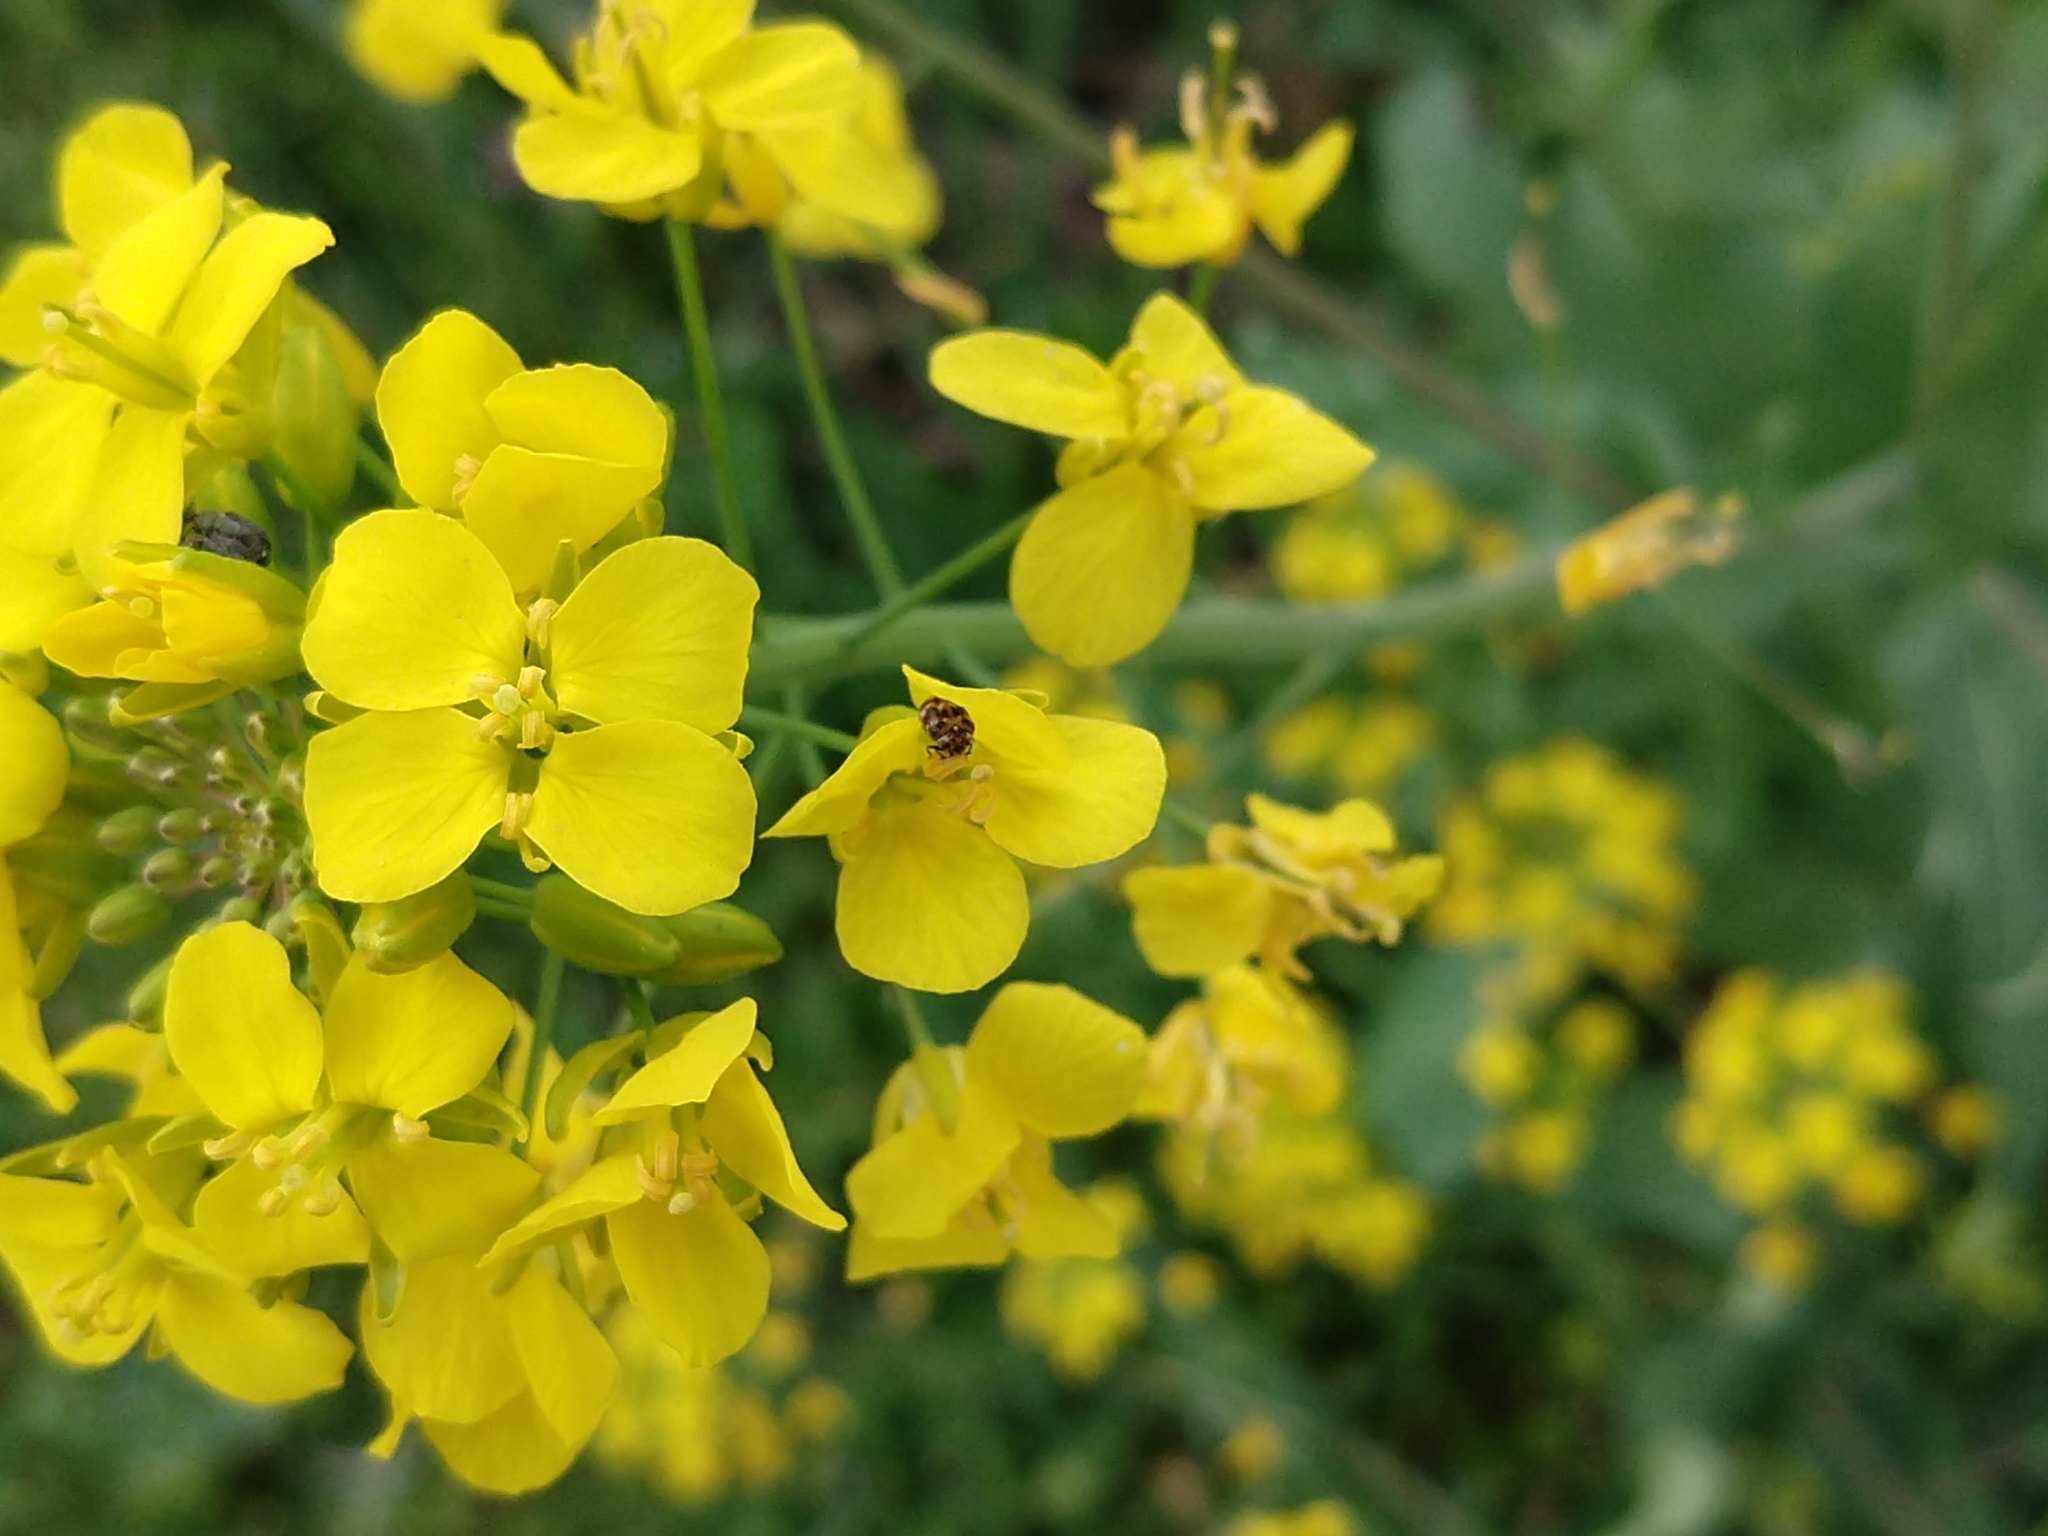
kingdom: Animalia
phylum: Arthropoda
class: Insecta
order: Coleoptera
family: Dermestidae
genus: Anthrenus
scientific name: Anthrenus verbasci
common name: Varied carpet beetle
